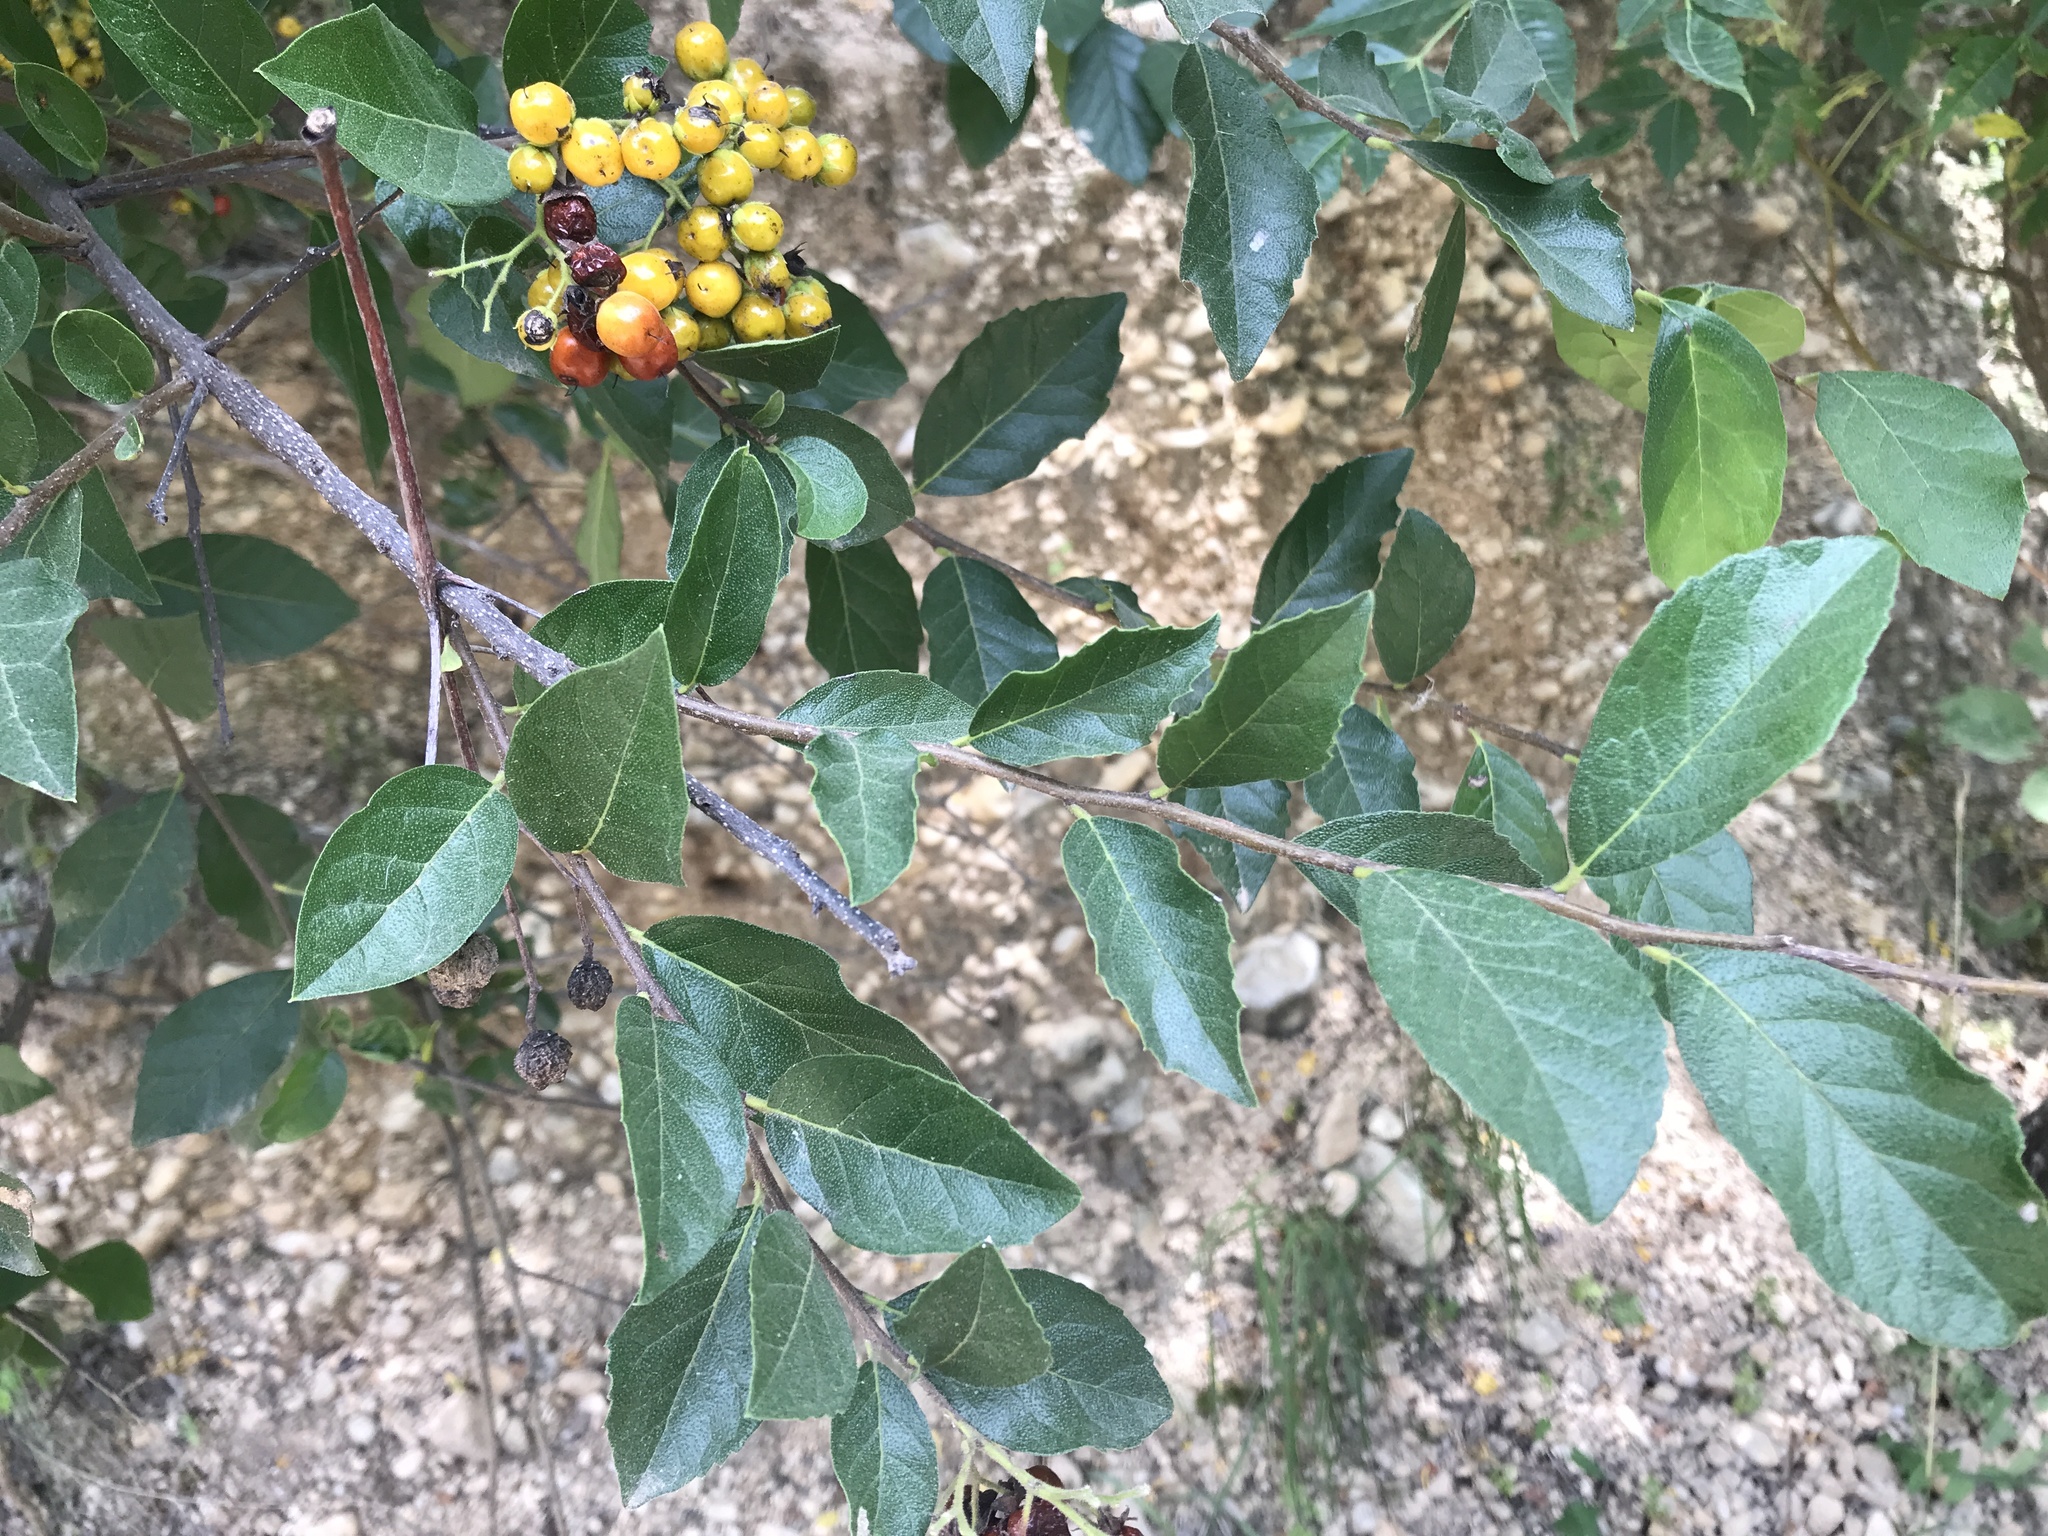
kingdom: Plantae
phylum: Tracheophyta
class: Magnoliopsida
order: Boraginales
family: Ehretiaceae
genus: Ehretia
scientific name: Ehretia anacua
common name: Sugarberry
